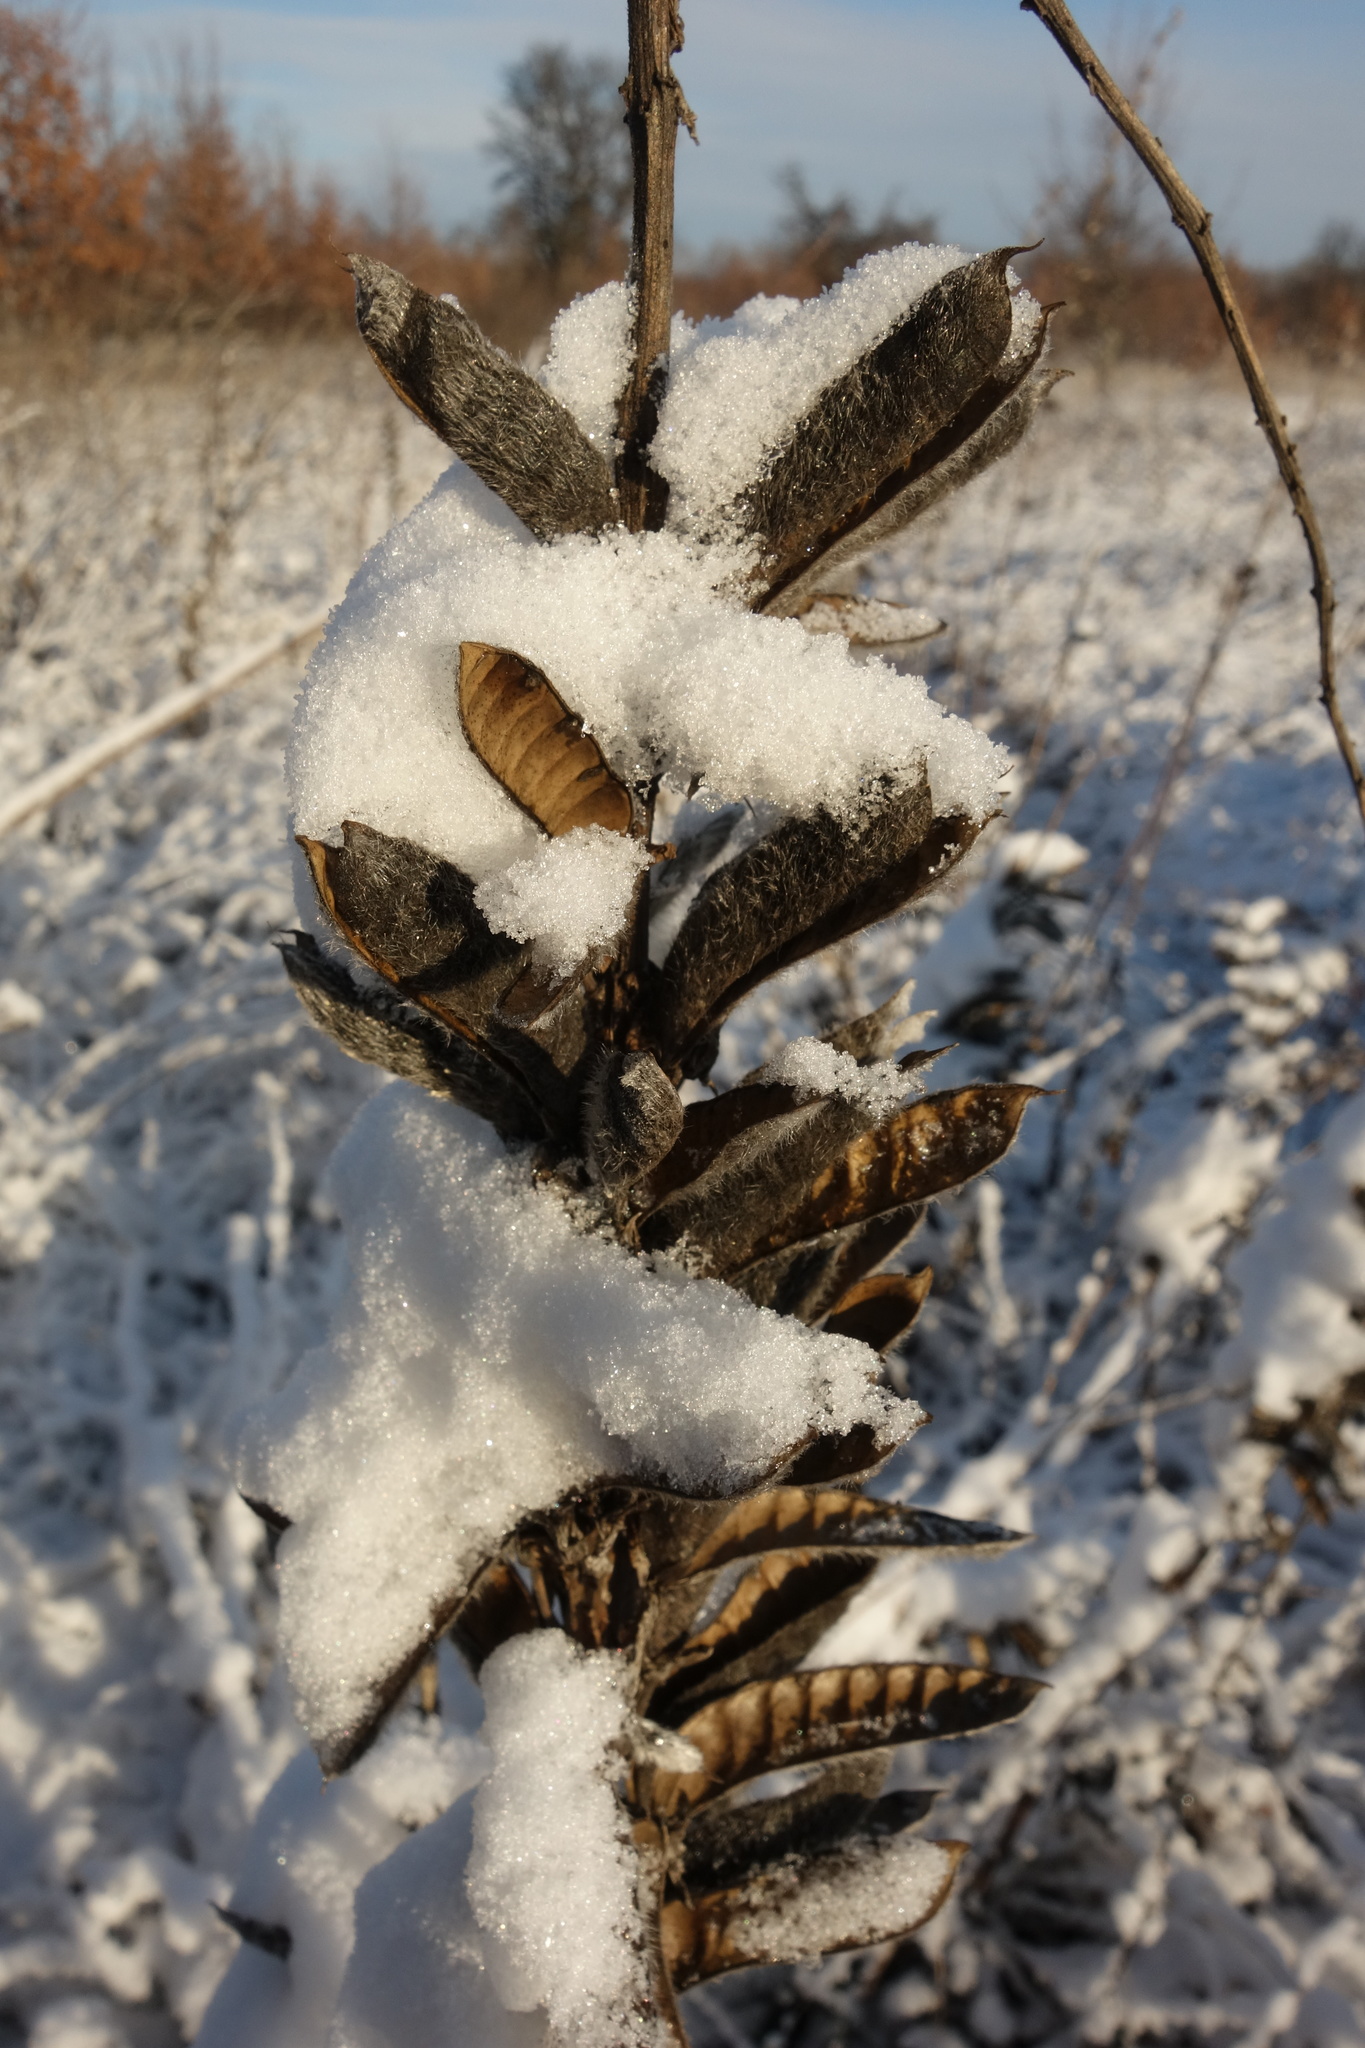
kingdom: Plantae
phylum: Tracheophyta
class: Magnoliopsida
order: Fabales
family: Fabaceae
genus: Lupinus
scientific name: Lupinus polyphyllus
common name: Garden lupin
